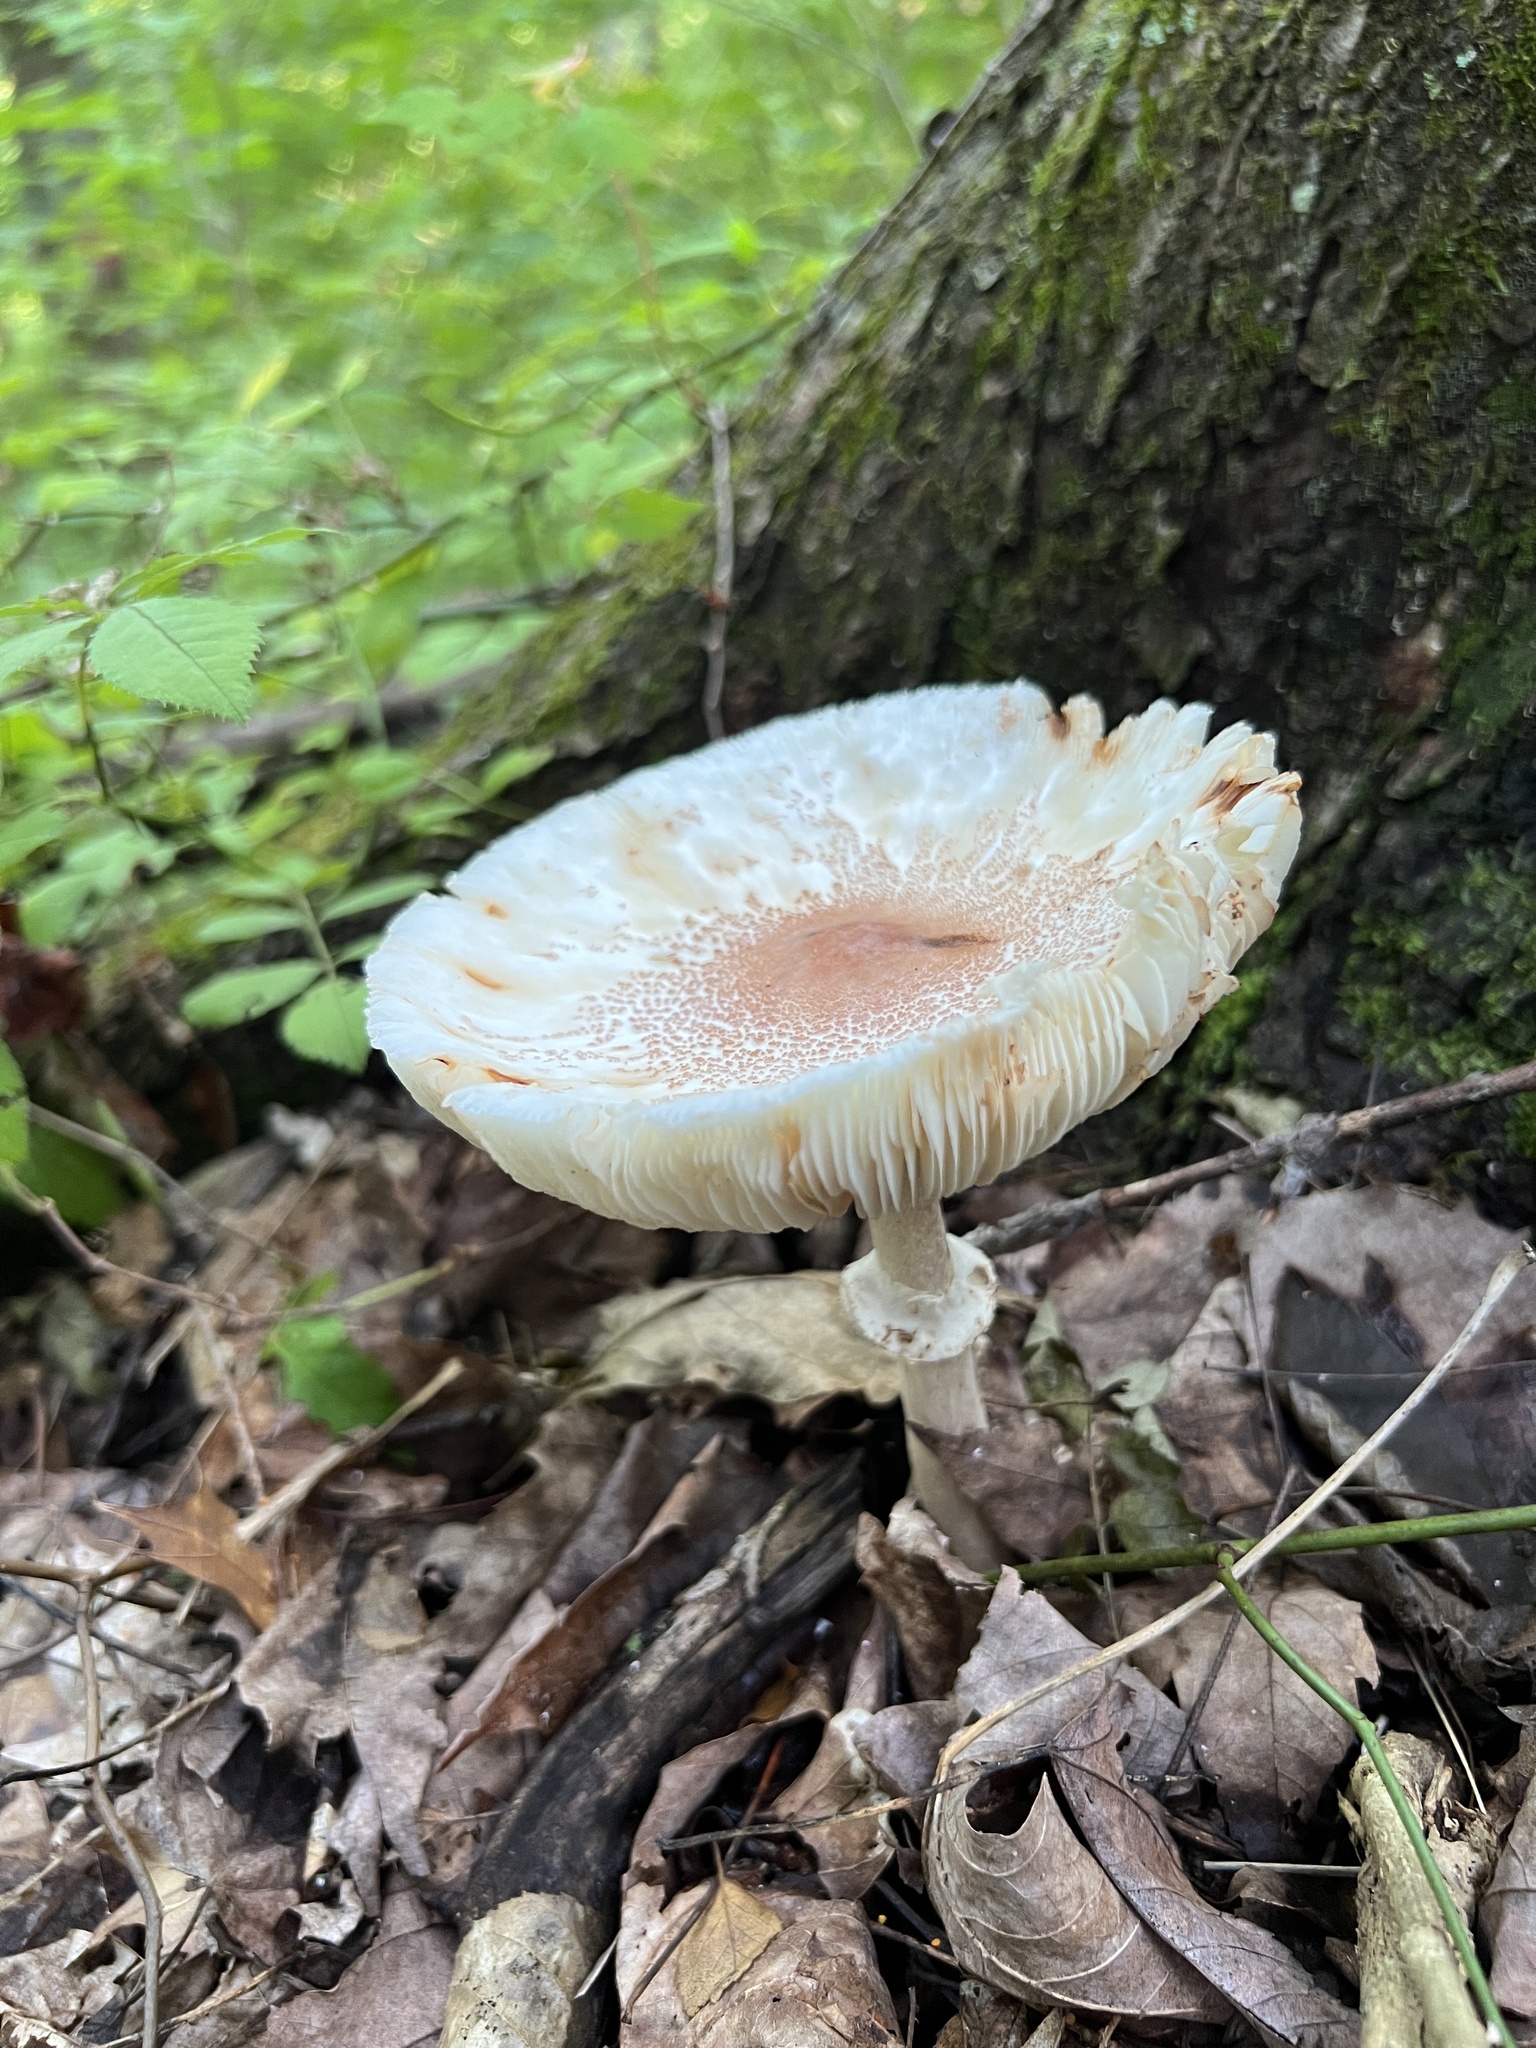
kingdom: Fungi
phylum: Basidiomycota
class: Agaricomycetes
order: Agaricales
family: Agaricaceae
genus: Leucoagaricus
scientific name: Leucoagaricus americanus
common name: Reddening lepiota
